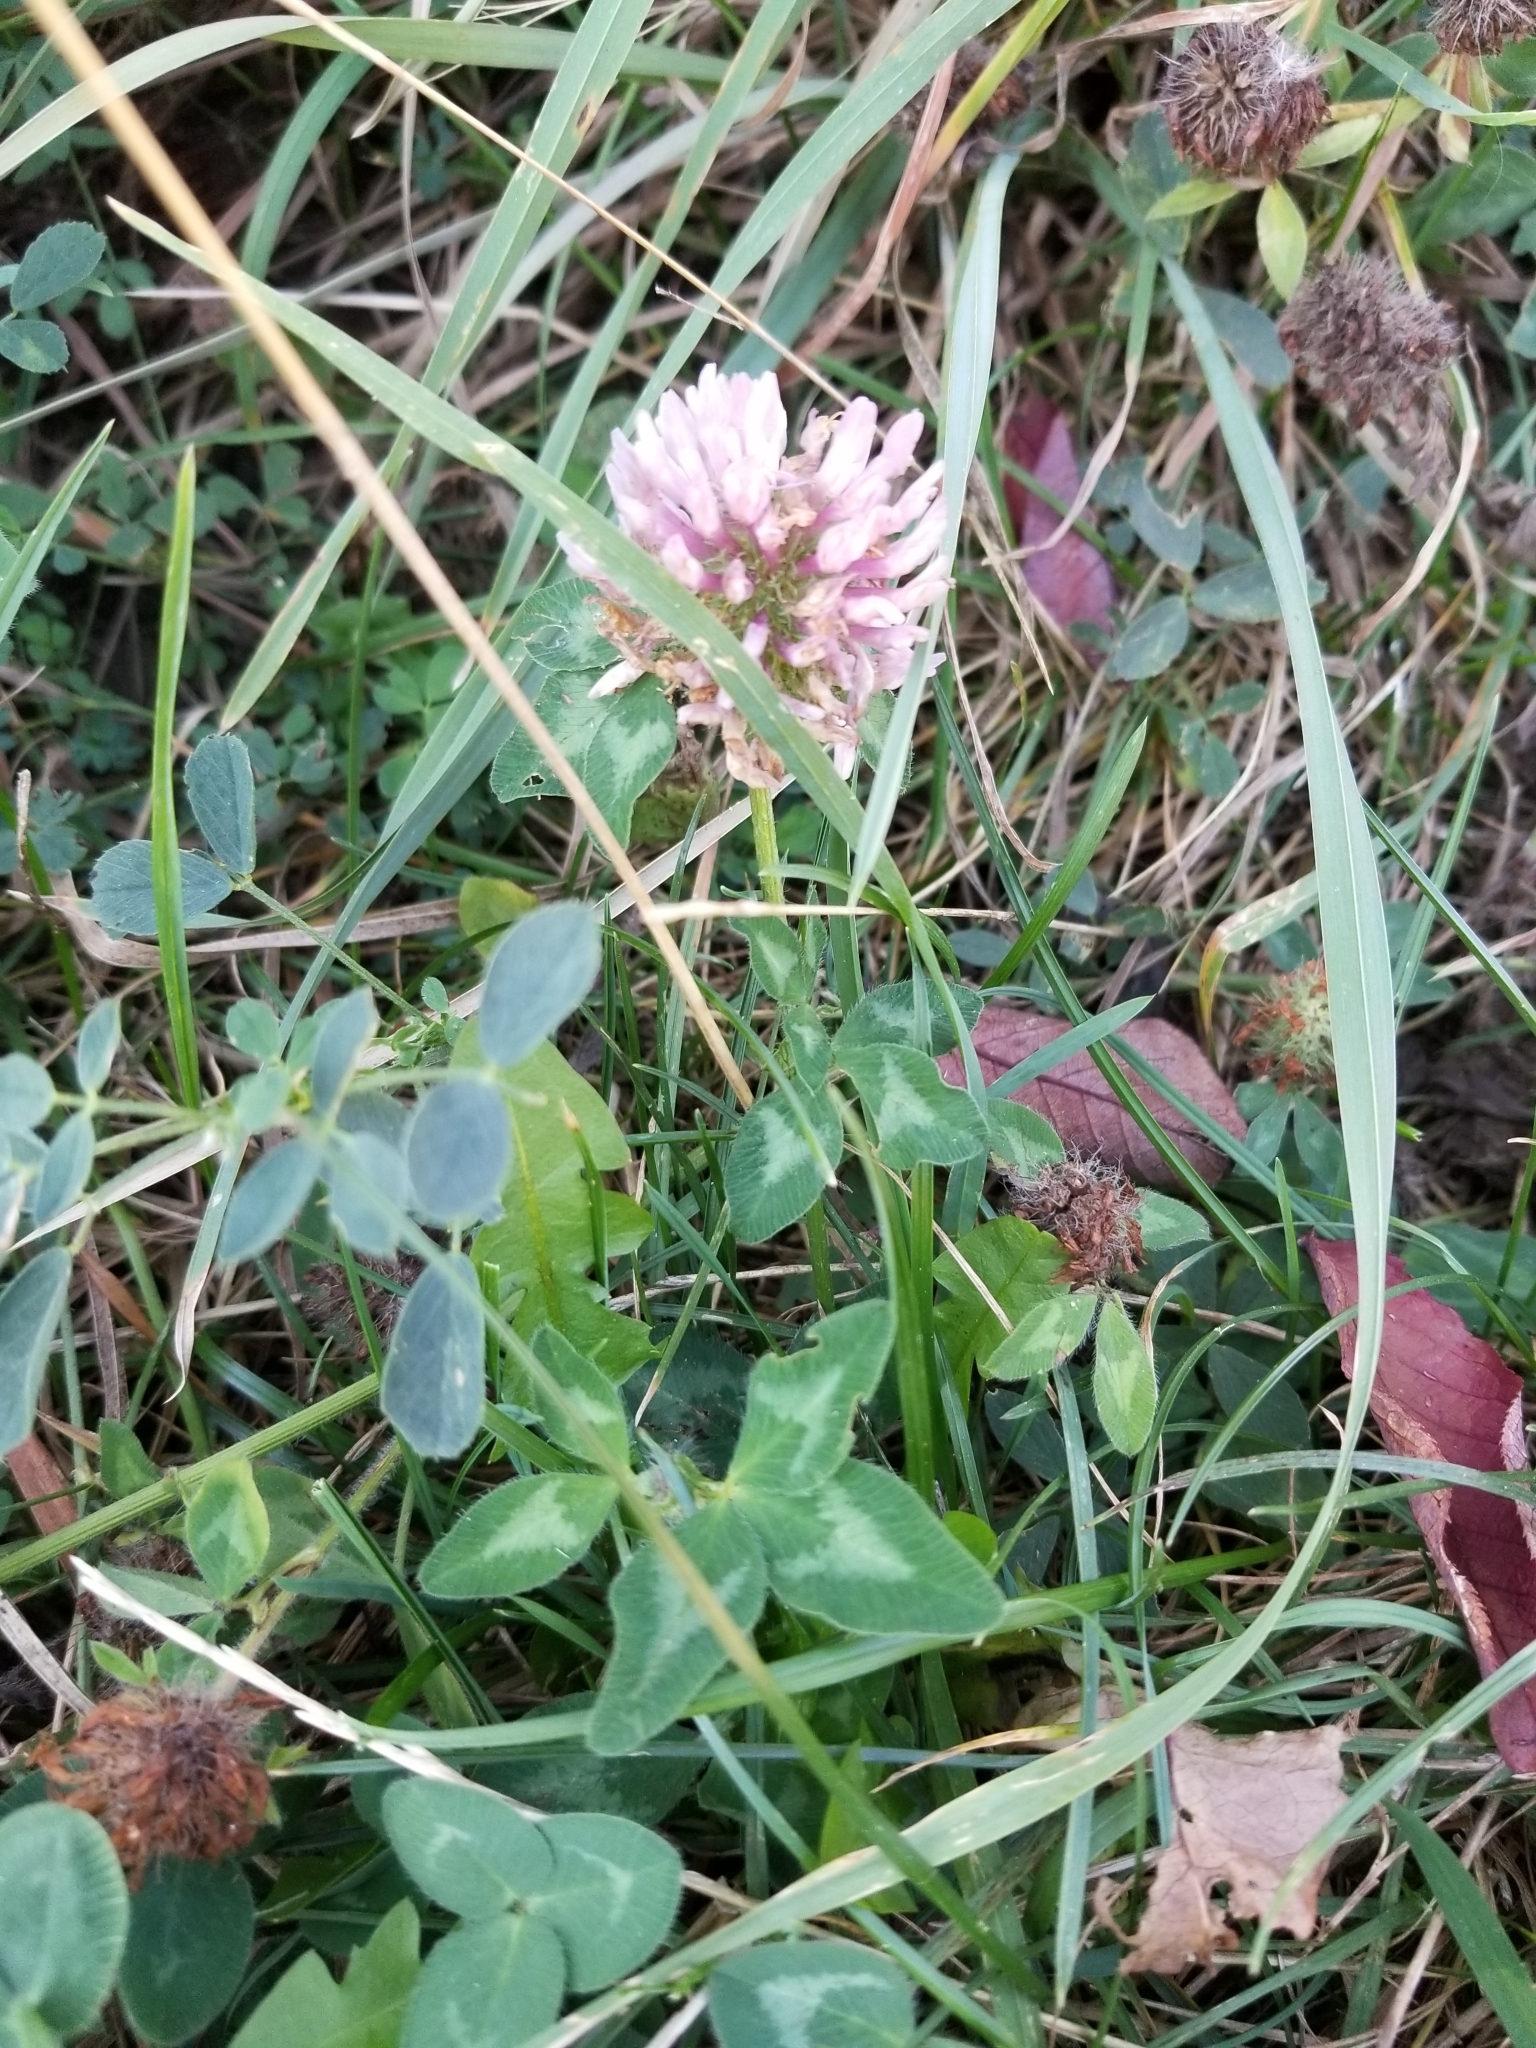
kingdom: Plantae
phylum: Tracheophyta
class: Magnoliopsida
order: Fabales
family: Fabaceae
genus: Trifolium
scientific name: Trifolium pratense
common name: Red clover
